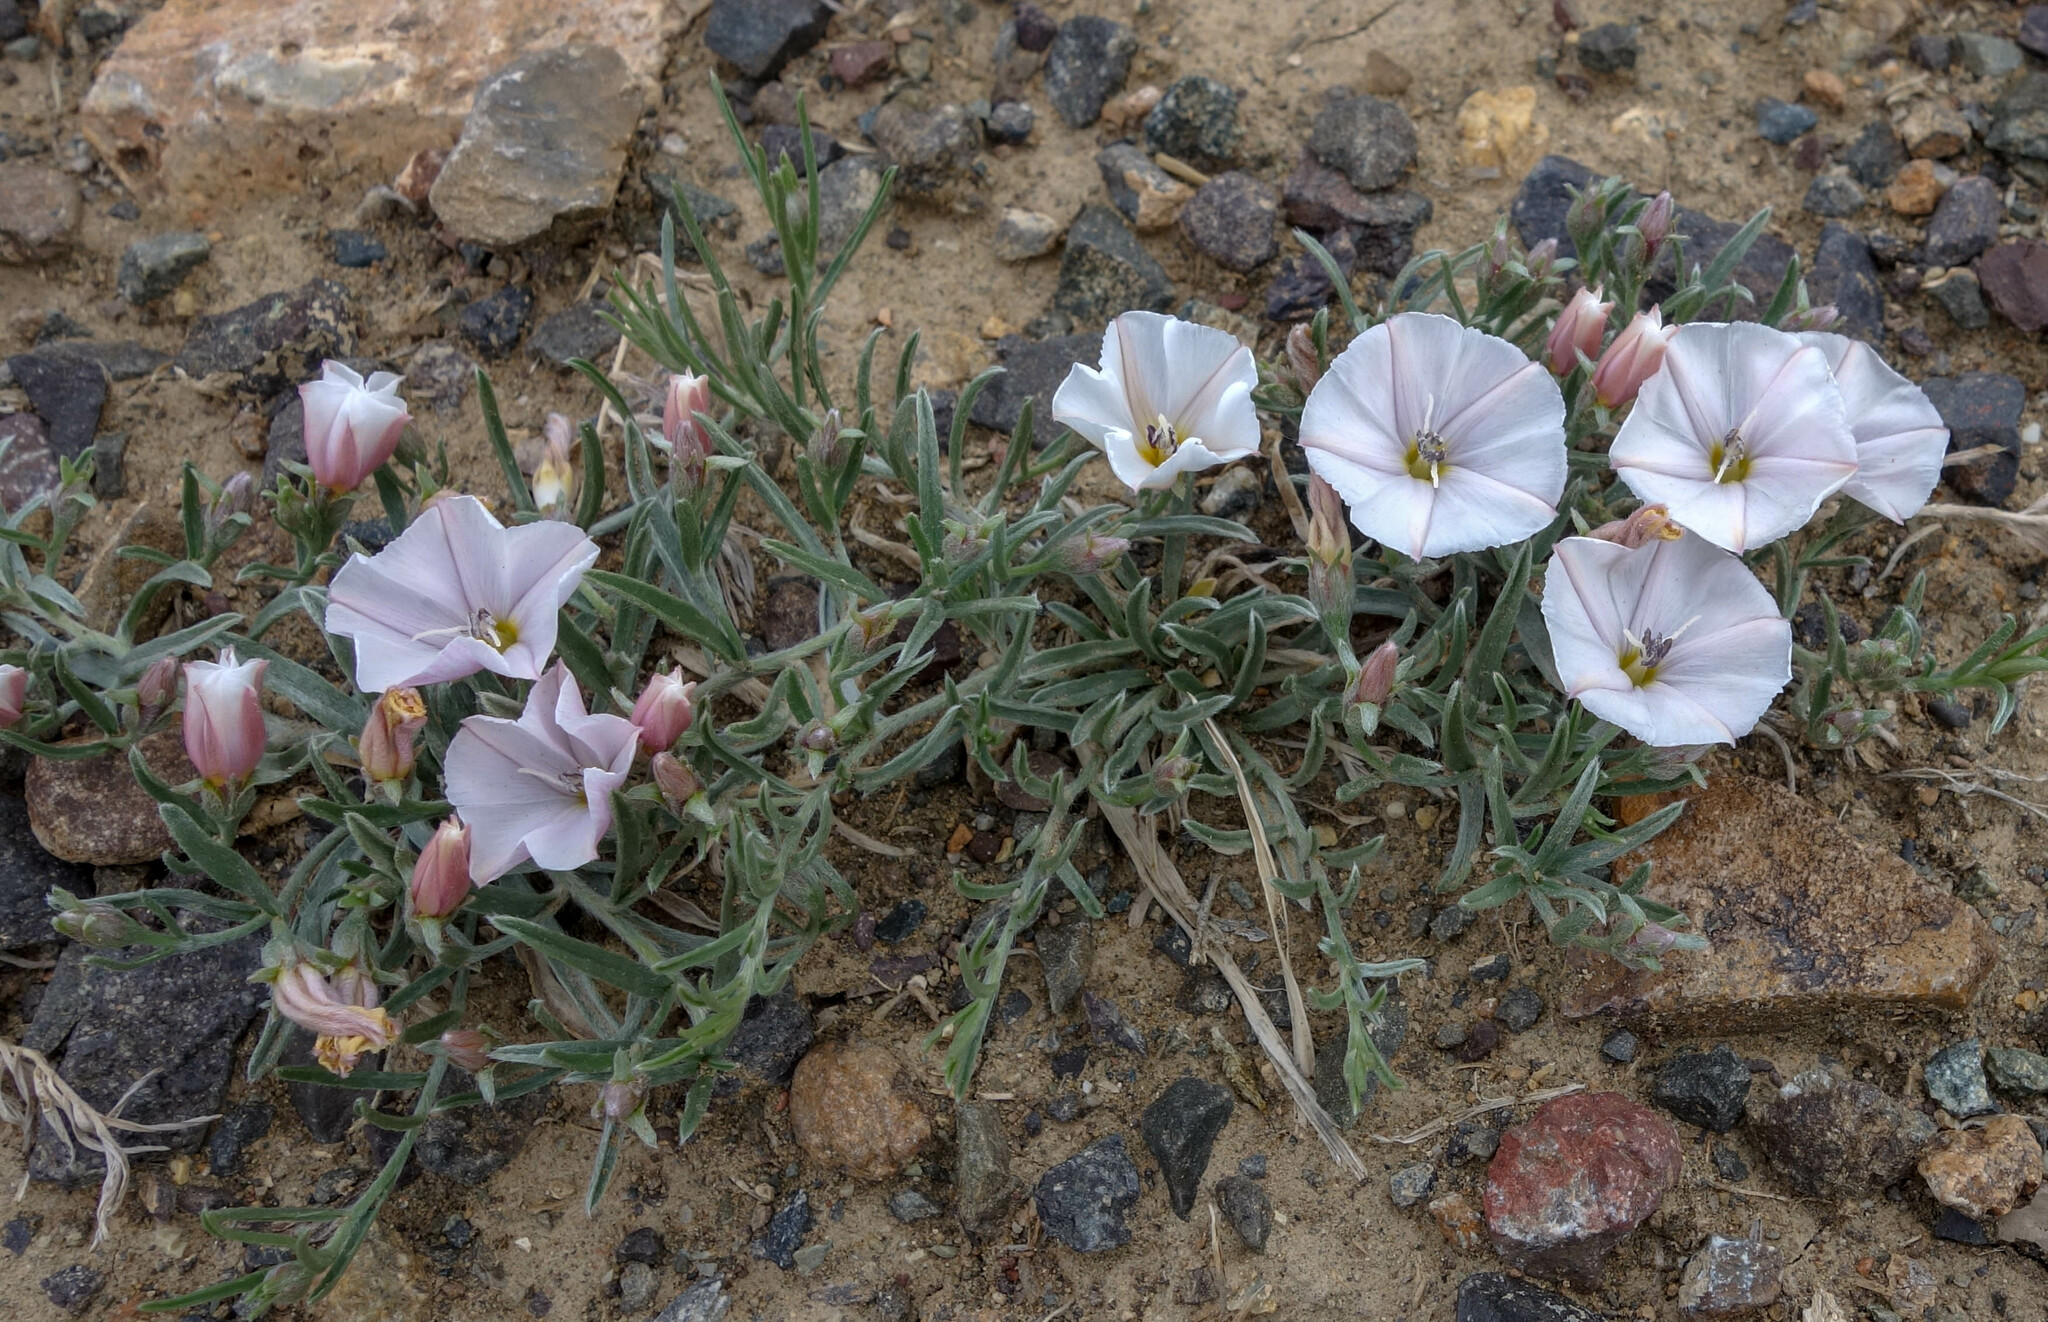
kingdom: Plantae
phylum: Tracheophyta
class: Magnoliopsida
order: Solanales
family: Convolvulaceae
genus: Convolvulus
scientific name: Convolvulus ammannii
